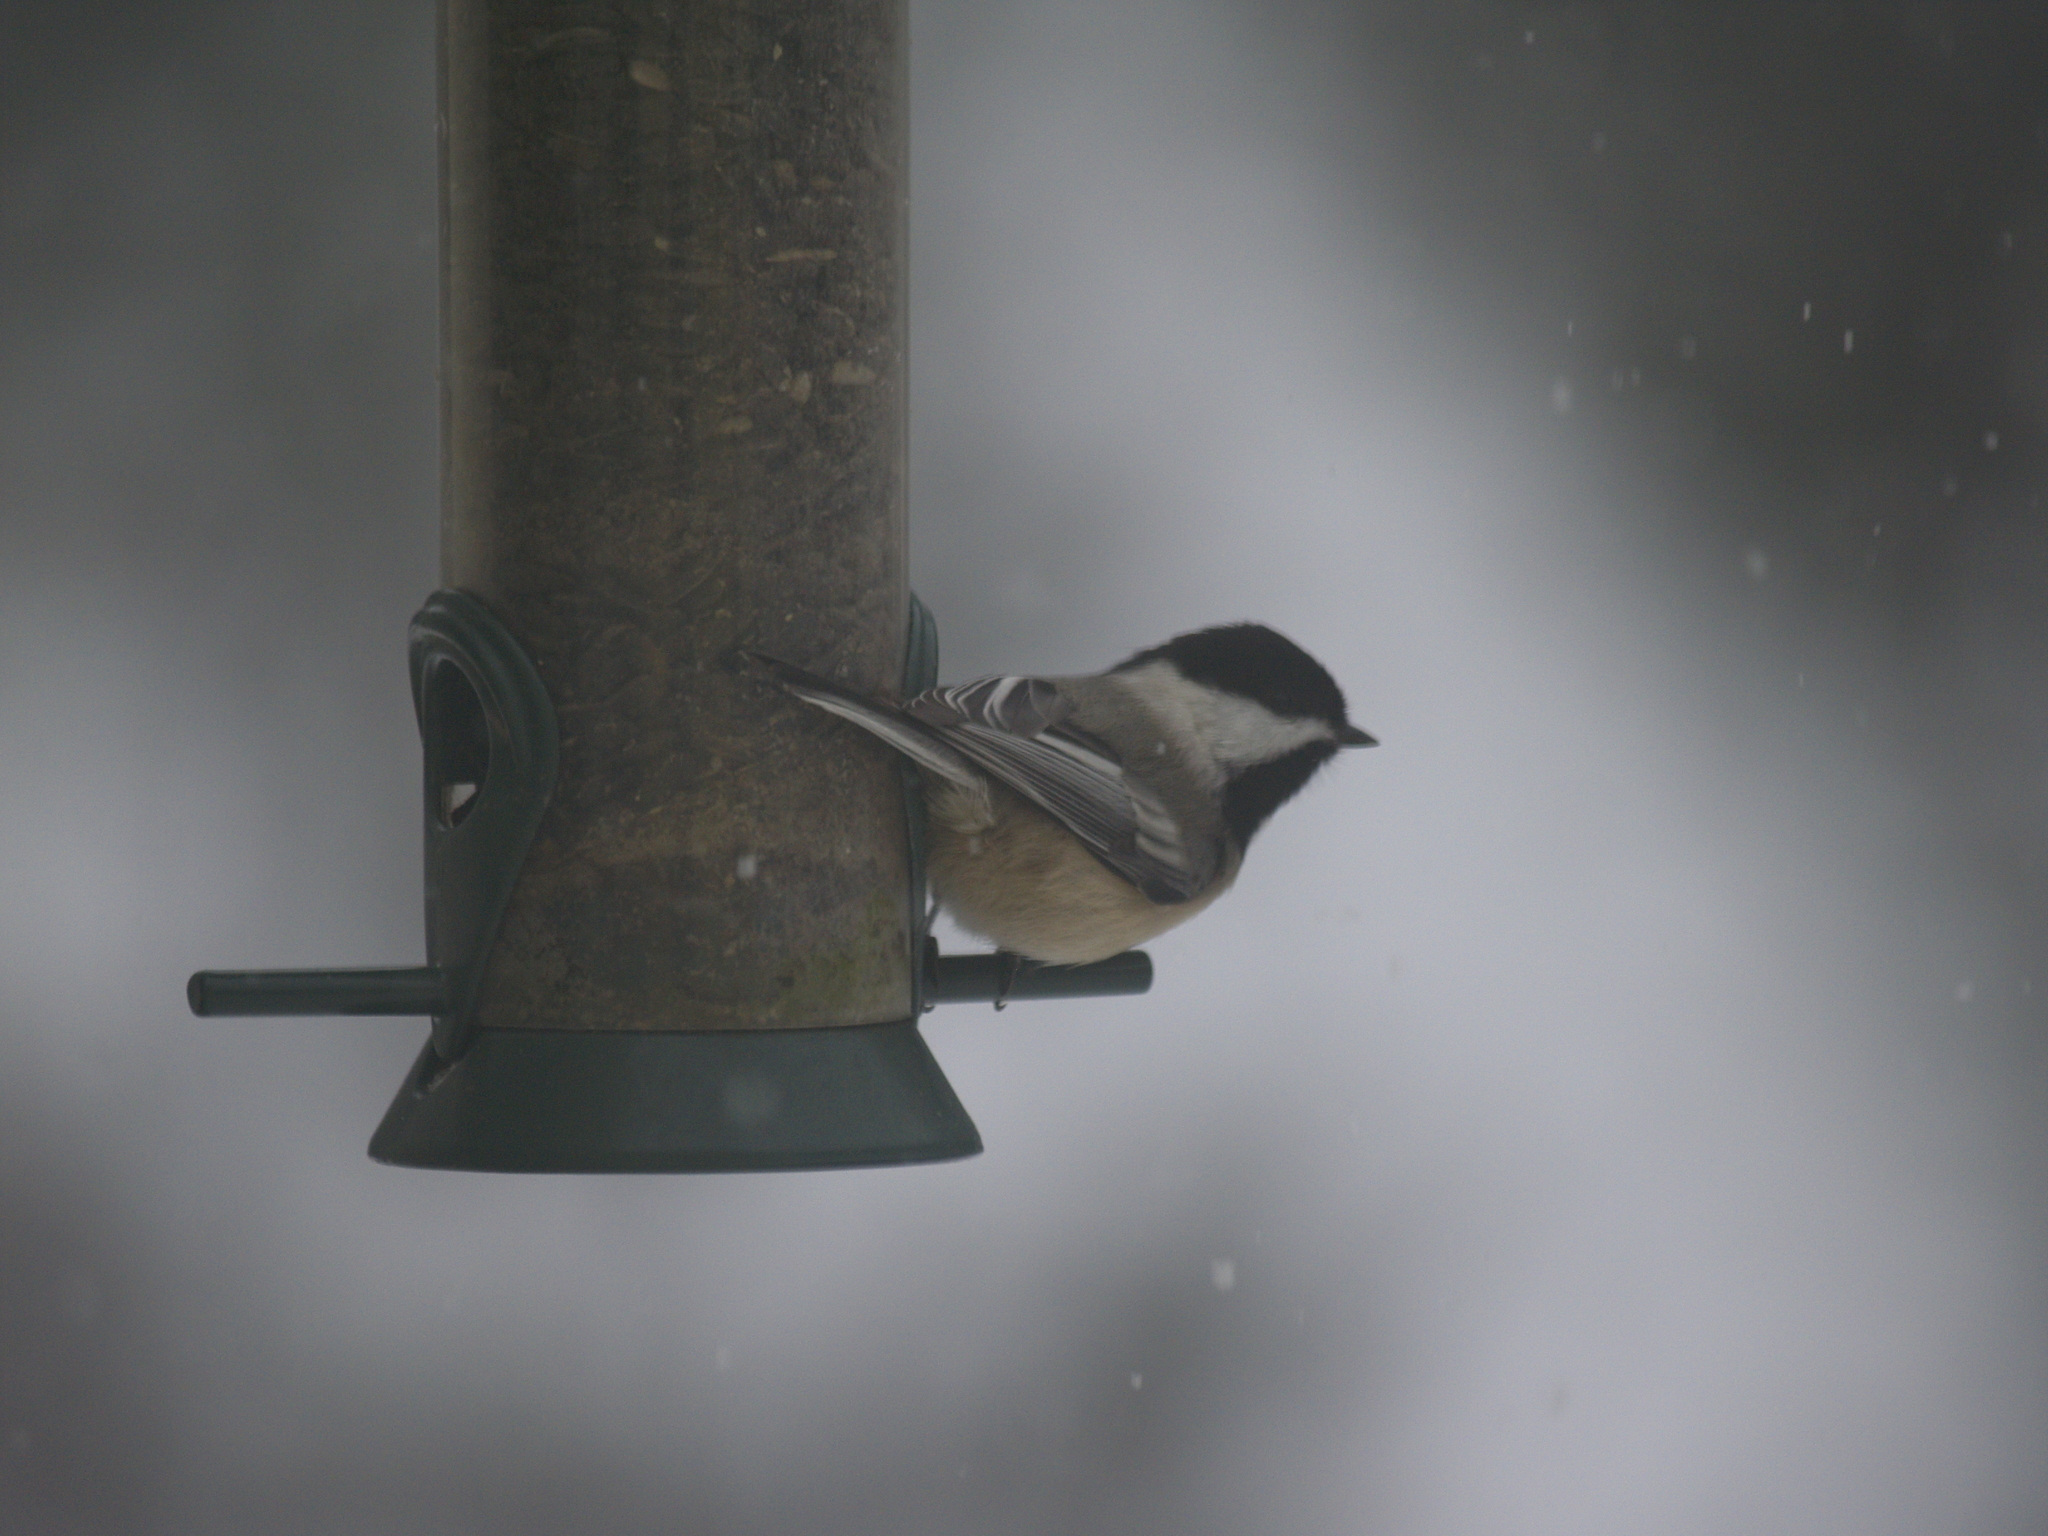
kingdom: Animalia
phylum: Chordata
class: Aves
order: Passeriformes
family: Paridae
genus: Poecile
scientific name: Poecile atricapillus
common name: Black-capped chickadee
